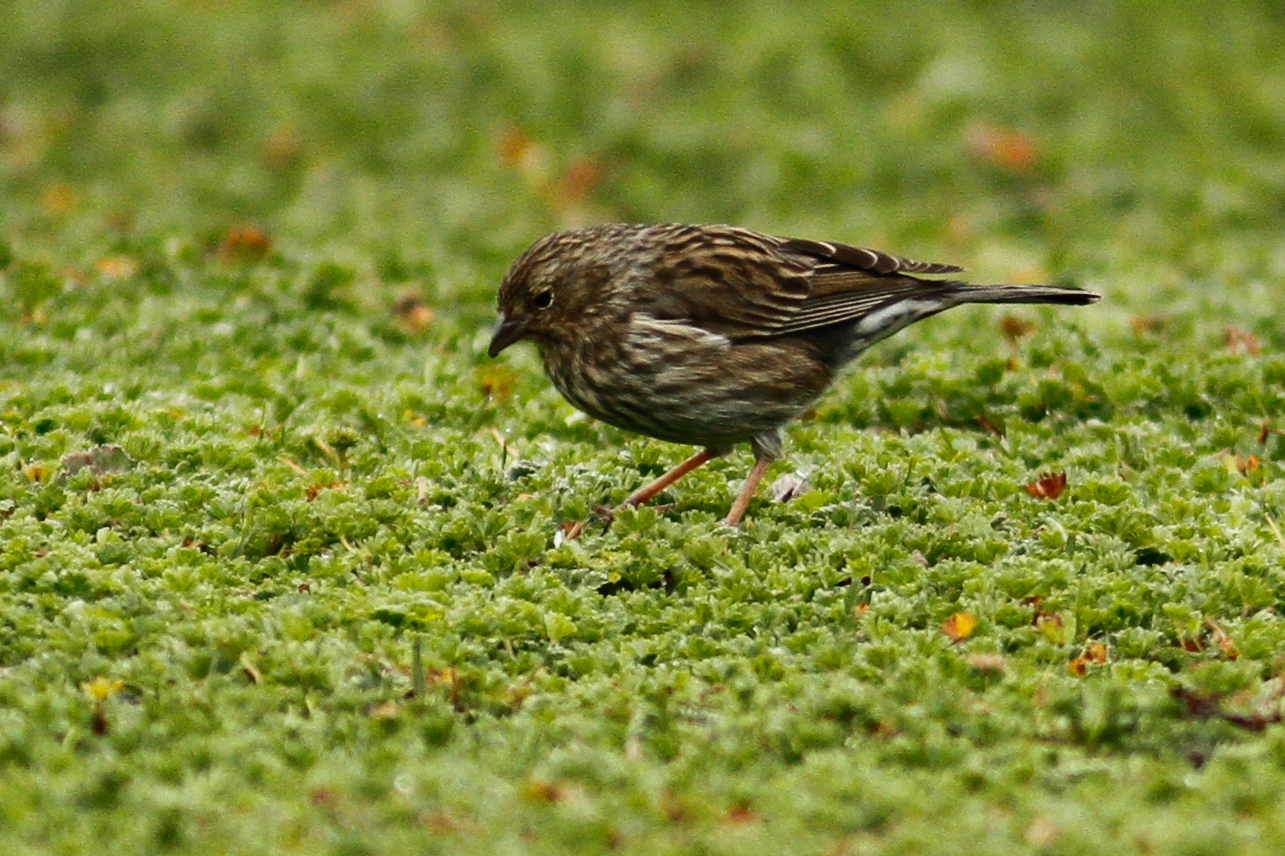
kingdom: Animalia
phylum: Chordata
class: Aves
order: Passeriformes
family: Thraupidae
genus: Geospizopsis
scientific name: Geospizopsis unicolor
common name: Plumbeous sierra-finch
